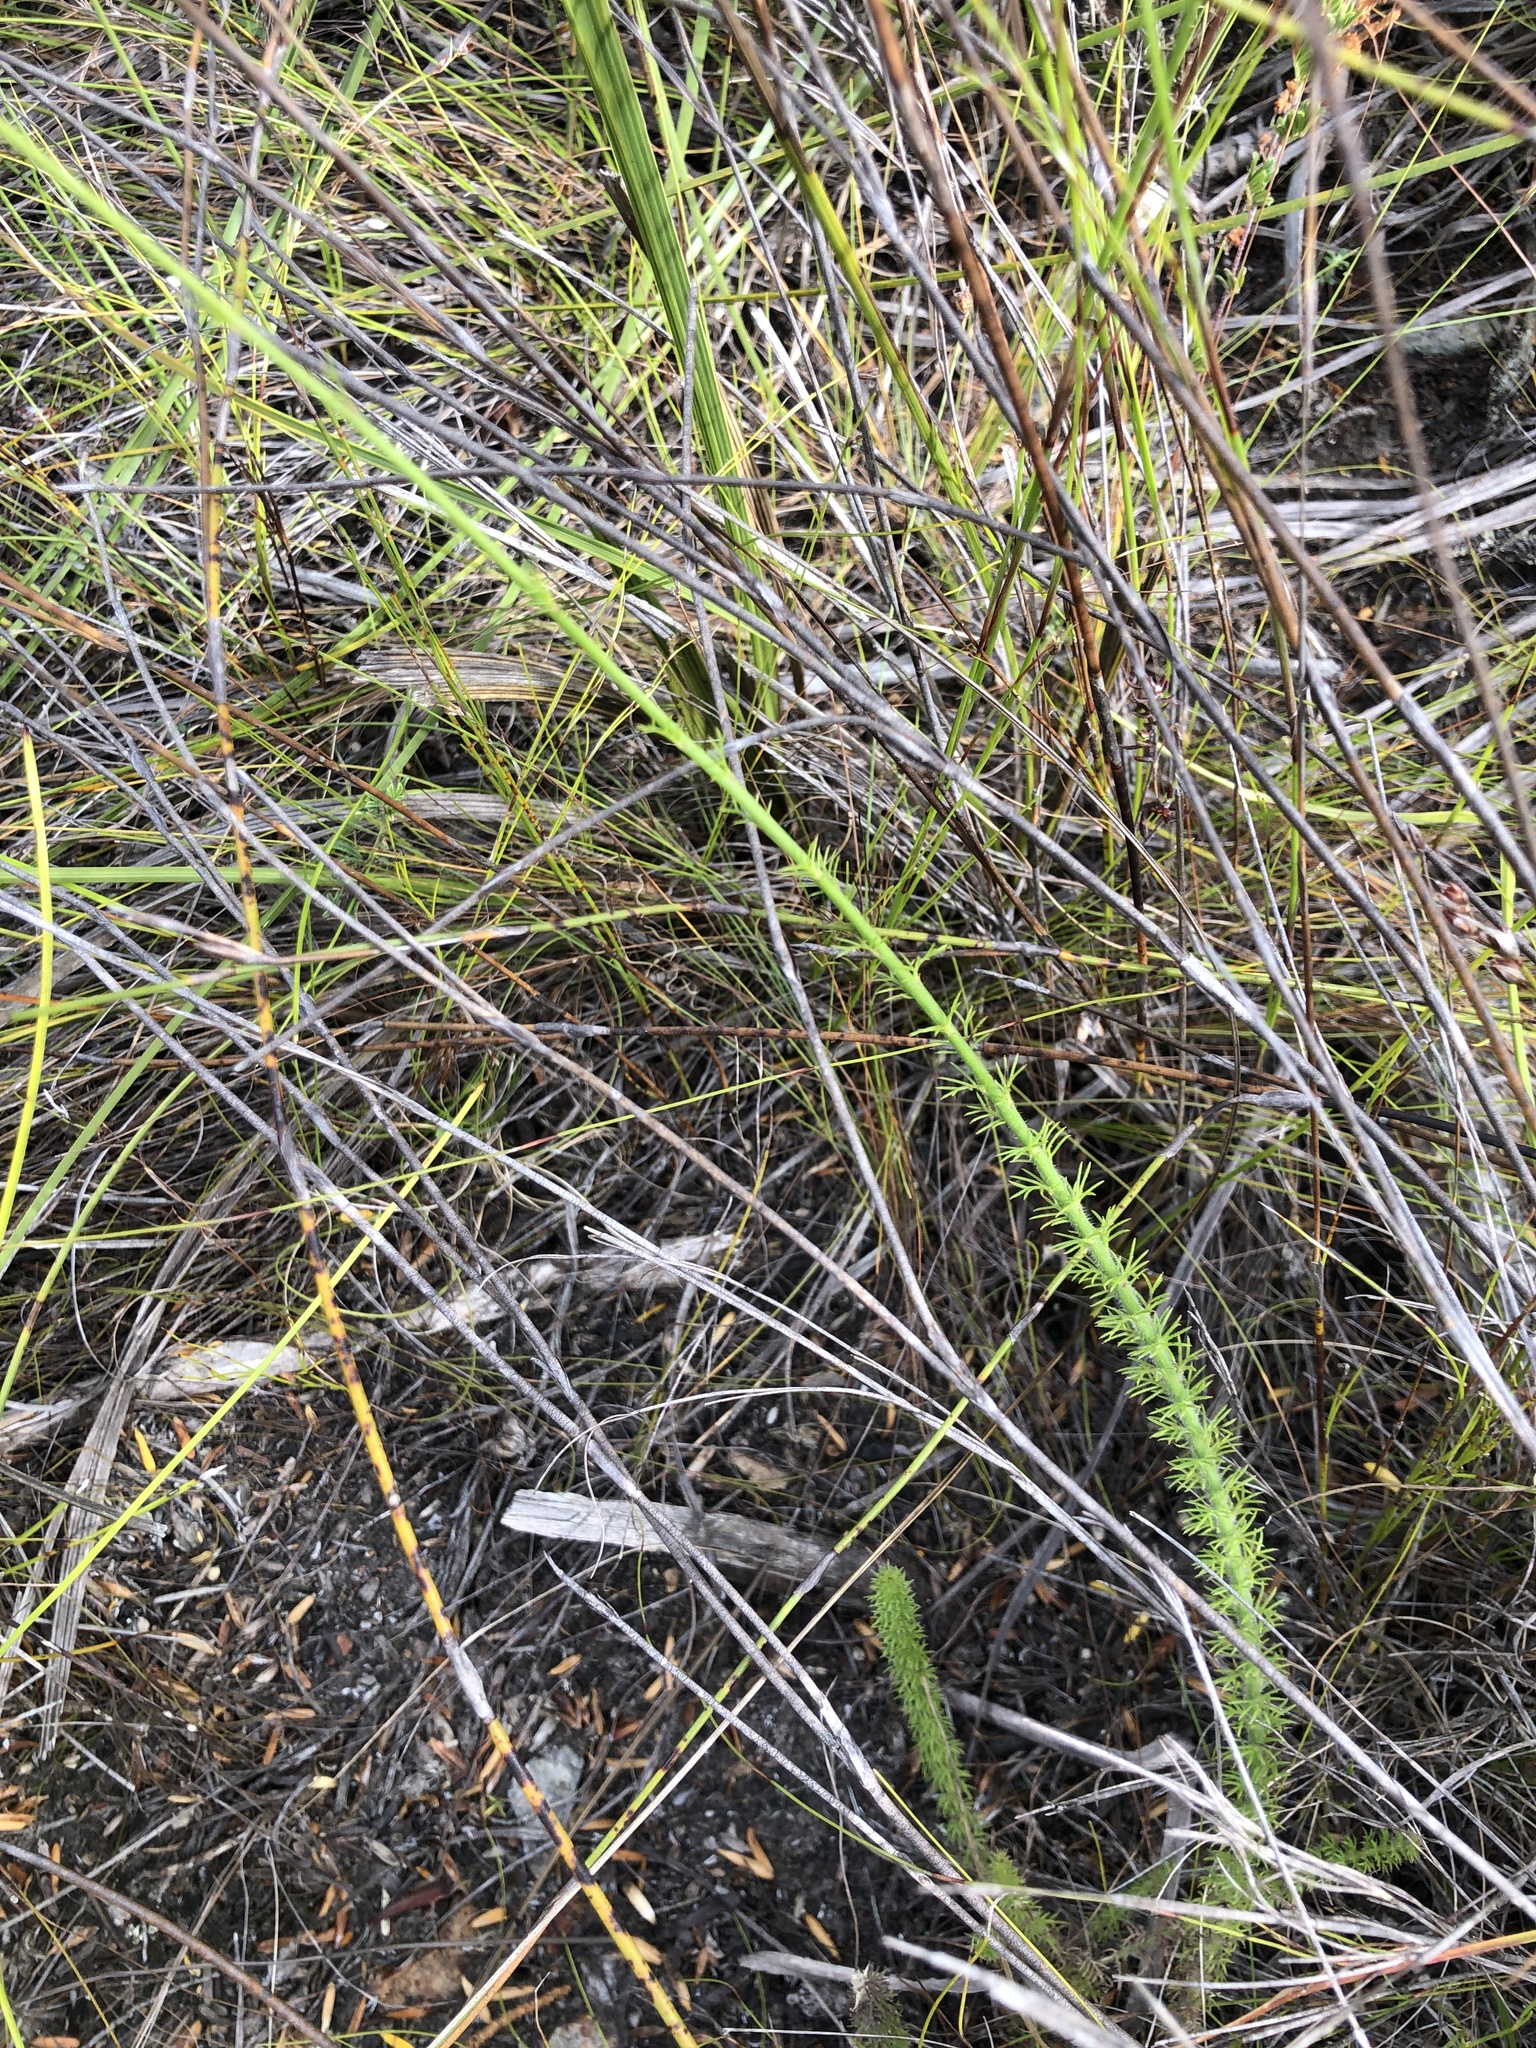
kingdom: Plantae
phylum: Tracheophyta
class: Magnoliopsida
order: Asterales
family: Campanulaceae
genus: Lobelia
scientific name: Lobelia barkerae
